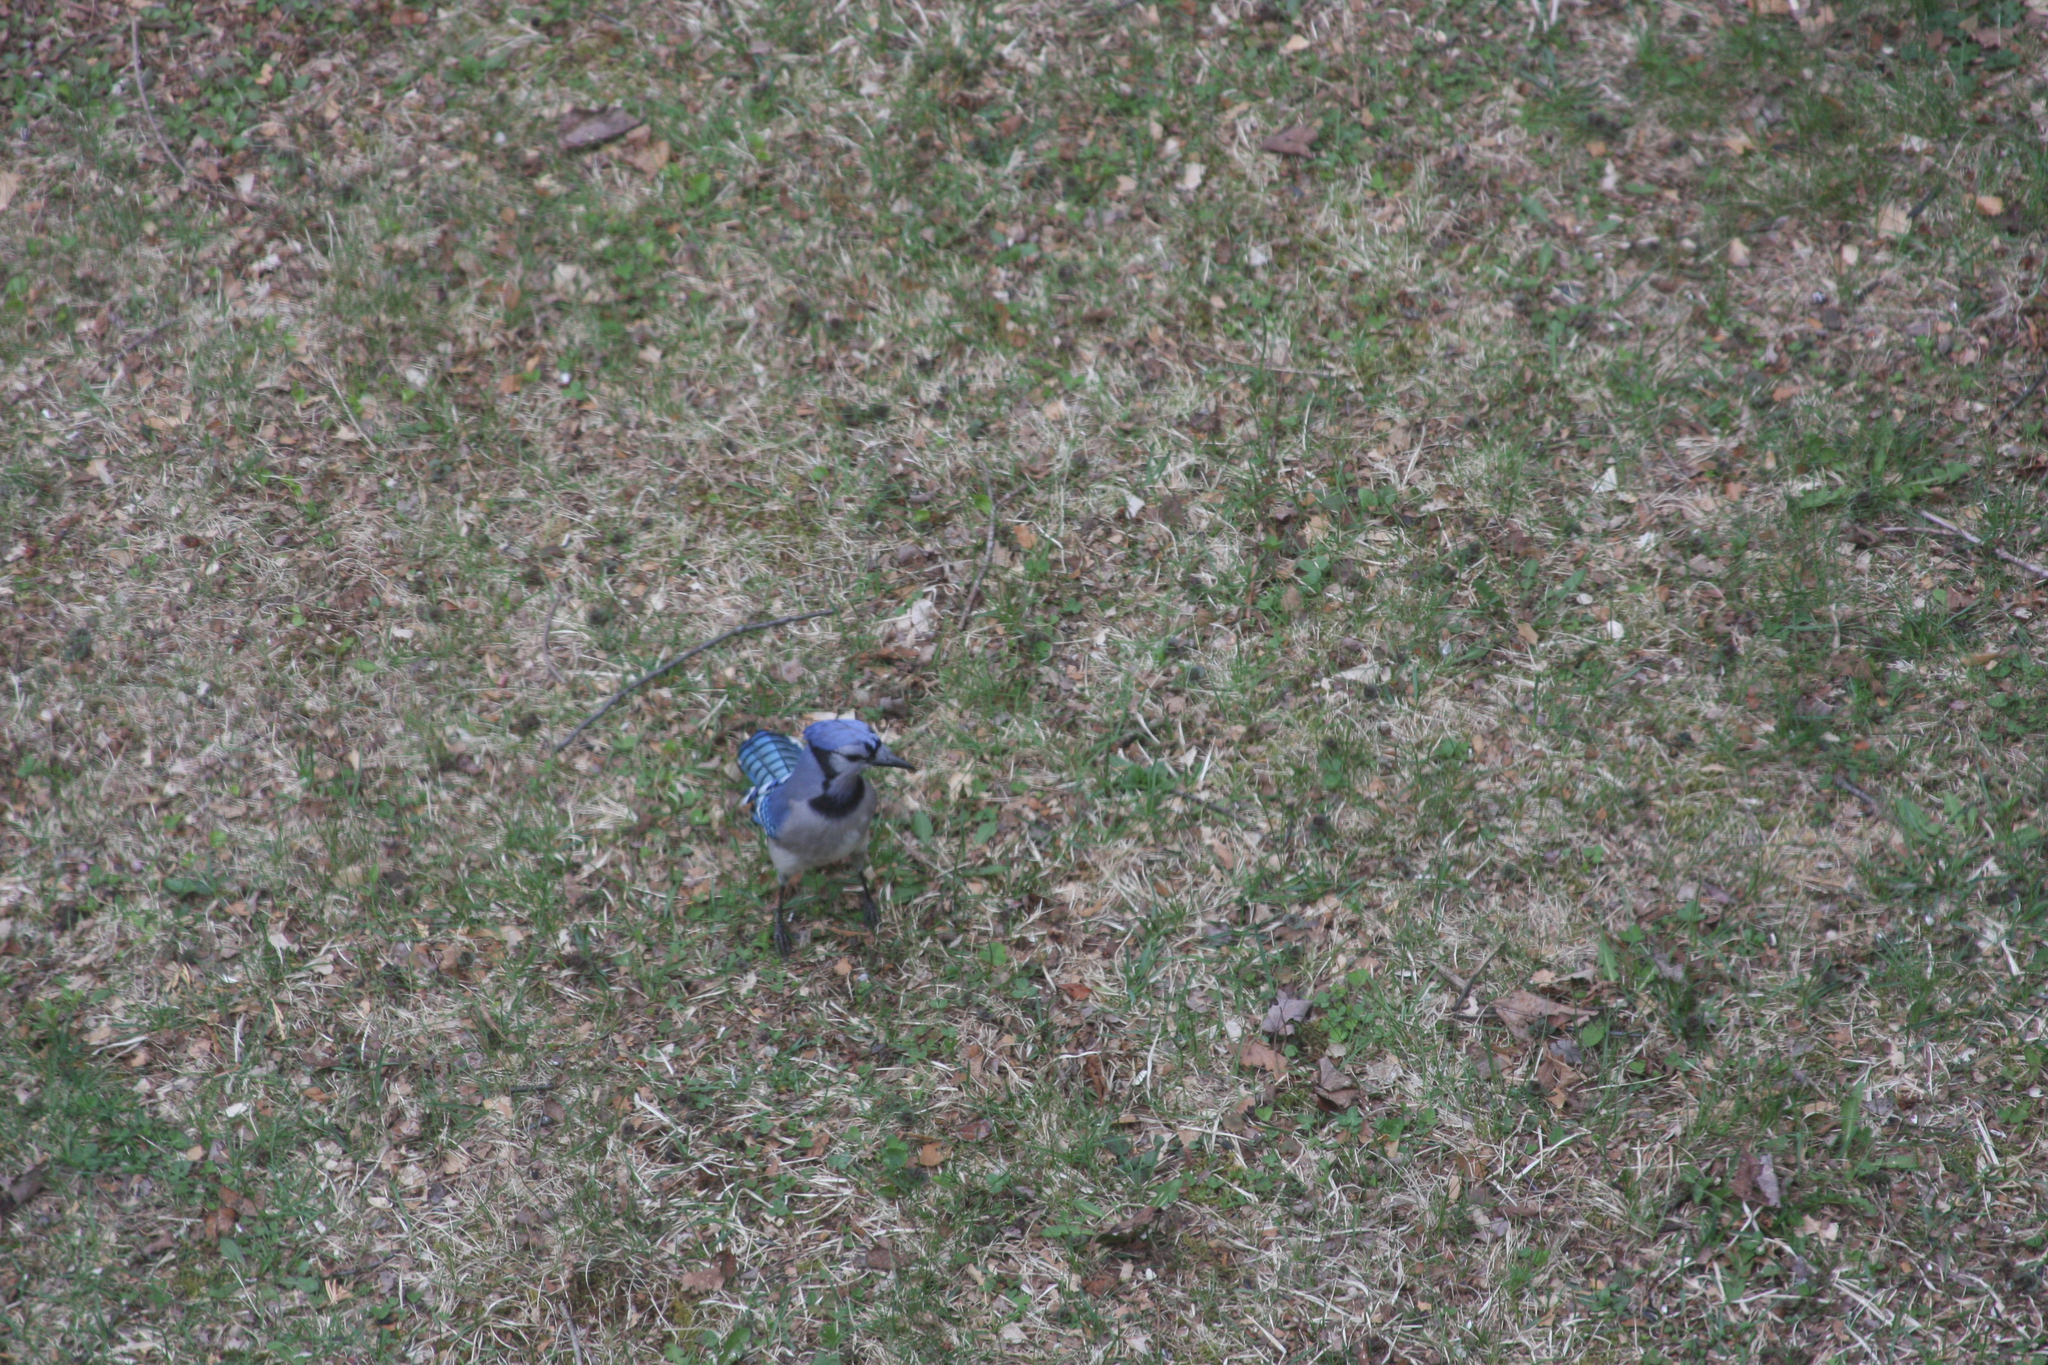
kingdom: Animalia
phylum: Chordata
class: Aves
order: Passeriformes
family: Corvidae
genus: Cyanocitta
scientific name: Cyanocitta cristata
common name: Blue jay
